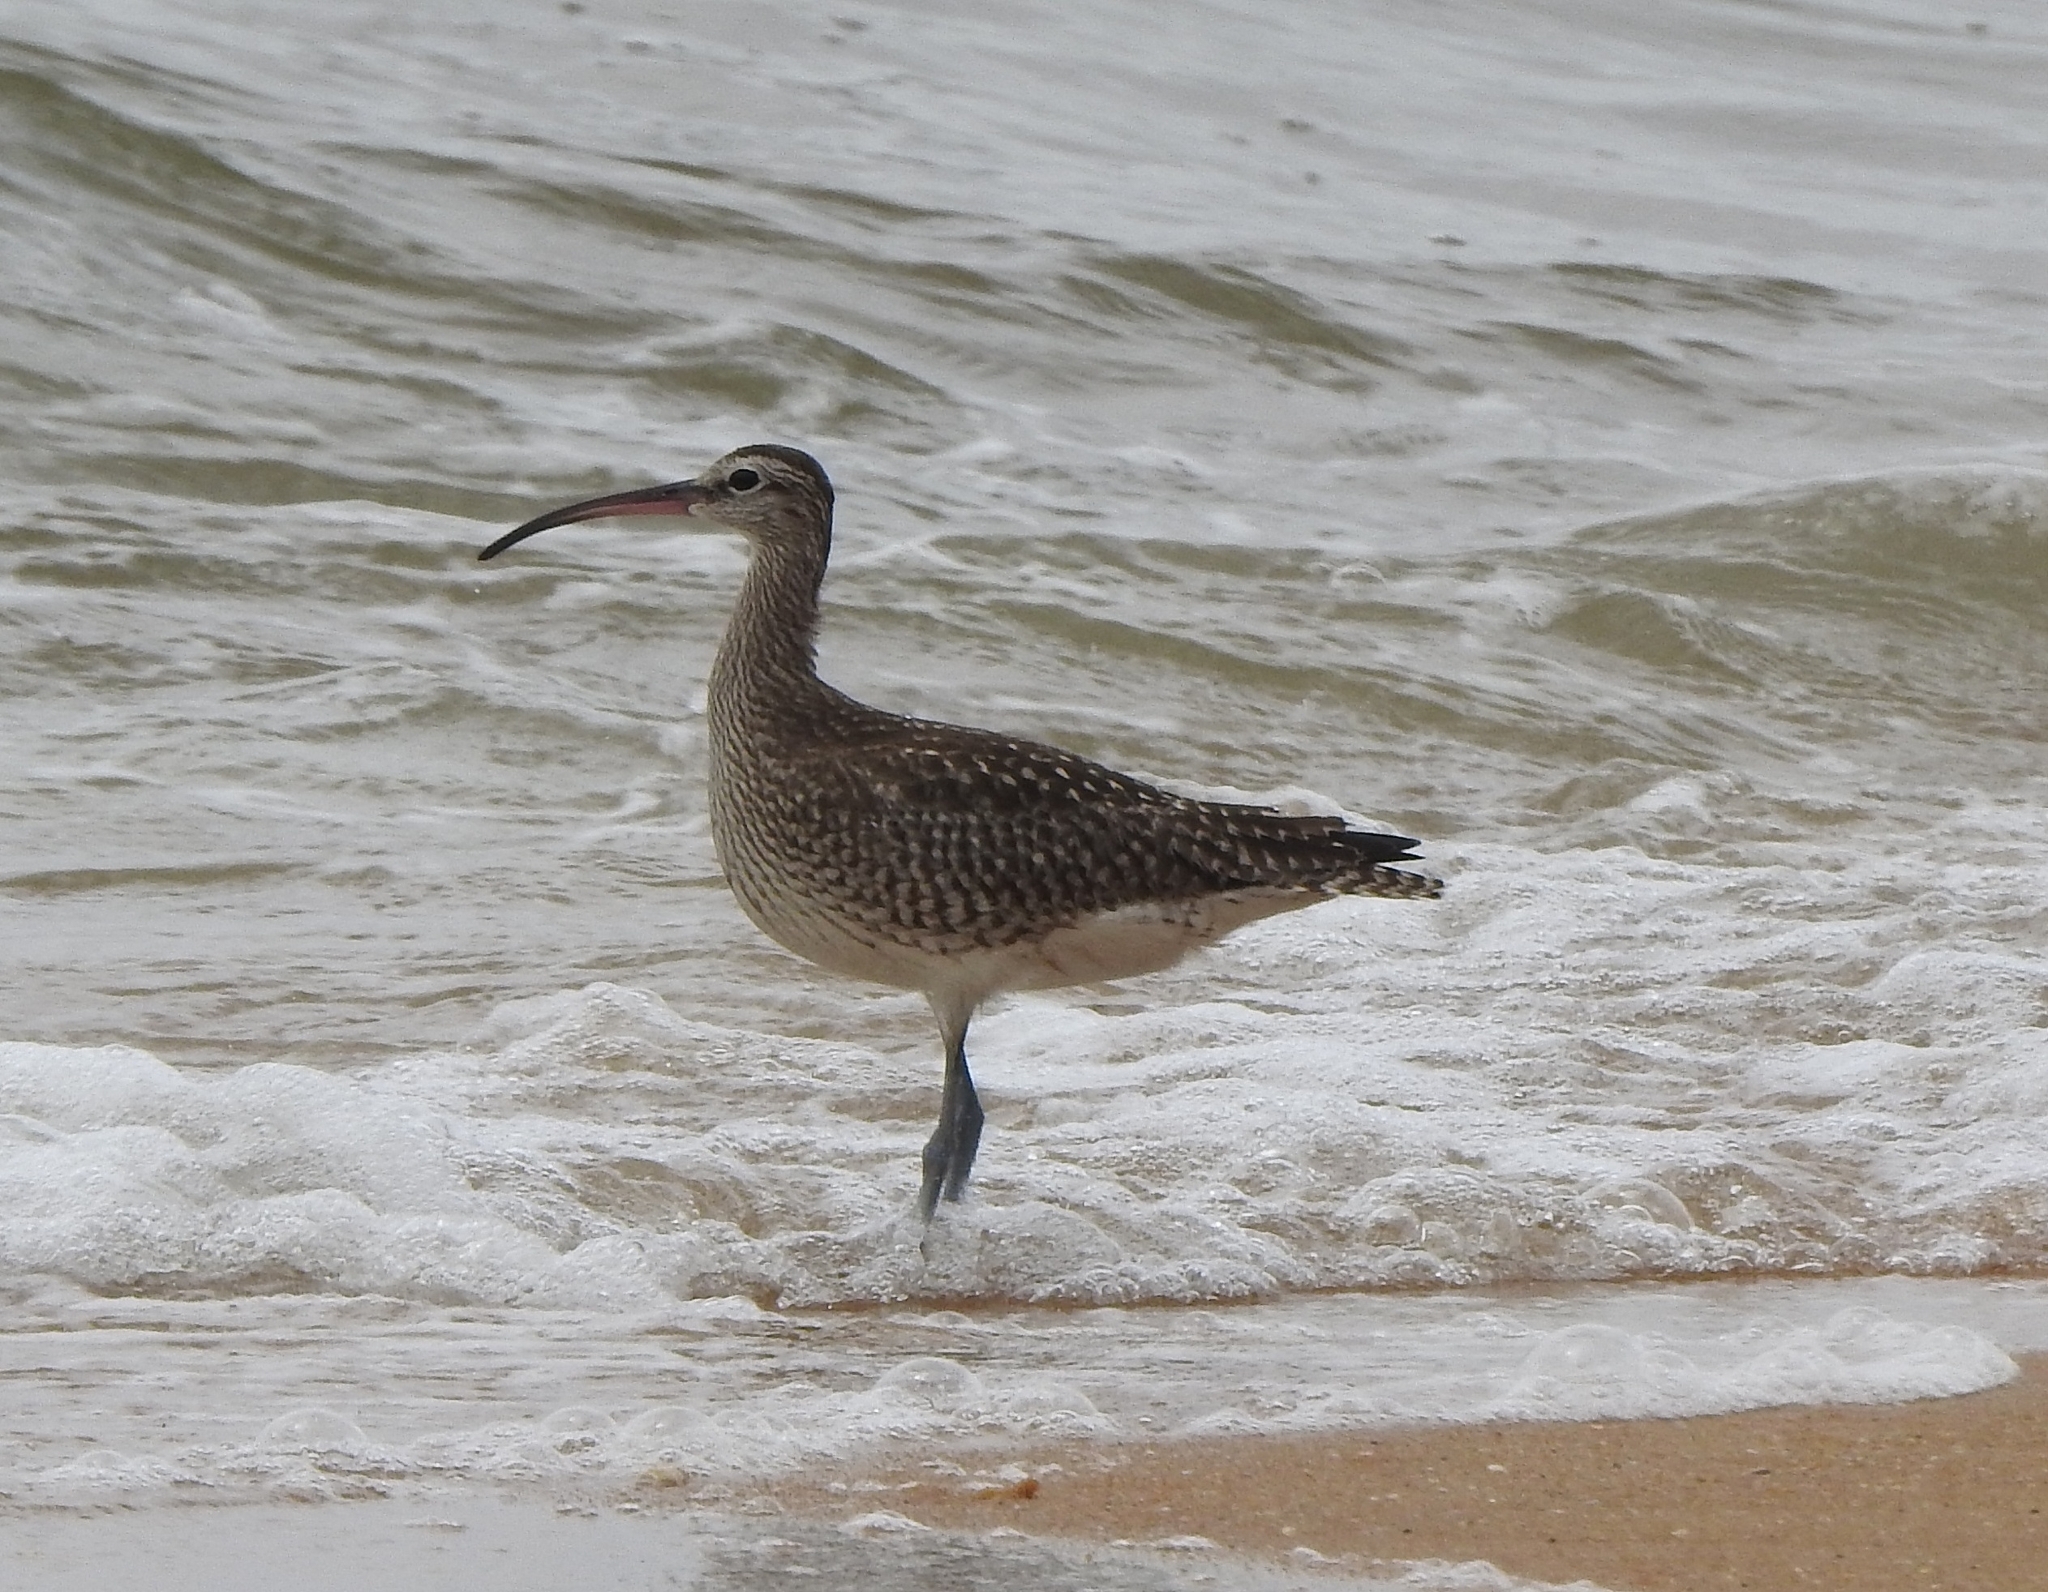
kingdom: Animalia
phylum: Chordata
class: Aves
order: Charadriiformes
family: Scolopacidae
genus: Numenius
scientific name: Numenius phaeopus
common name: Whimbrel
